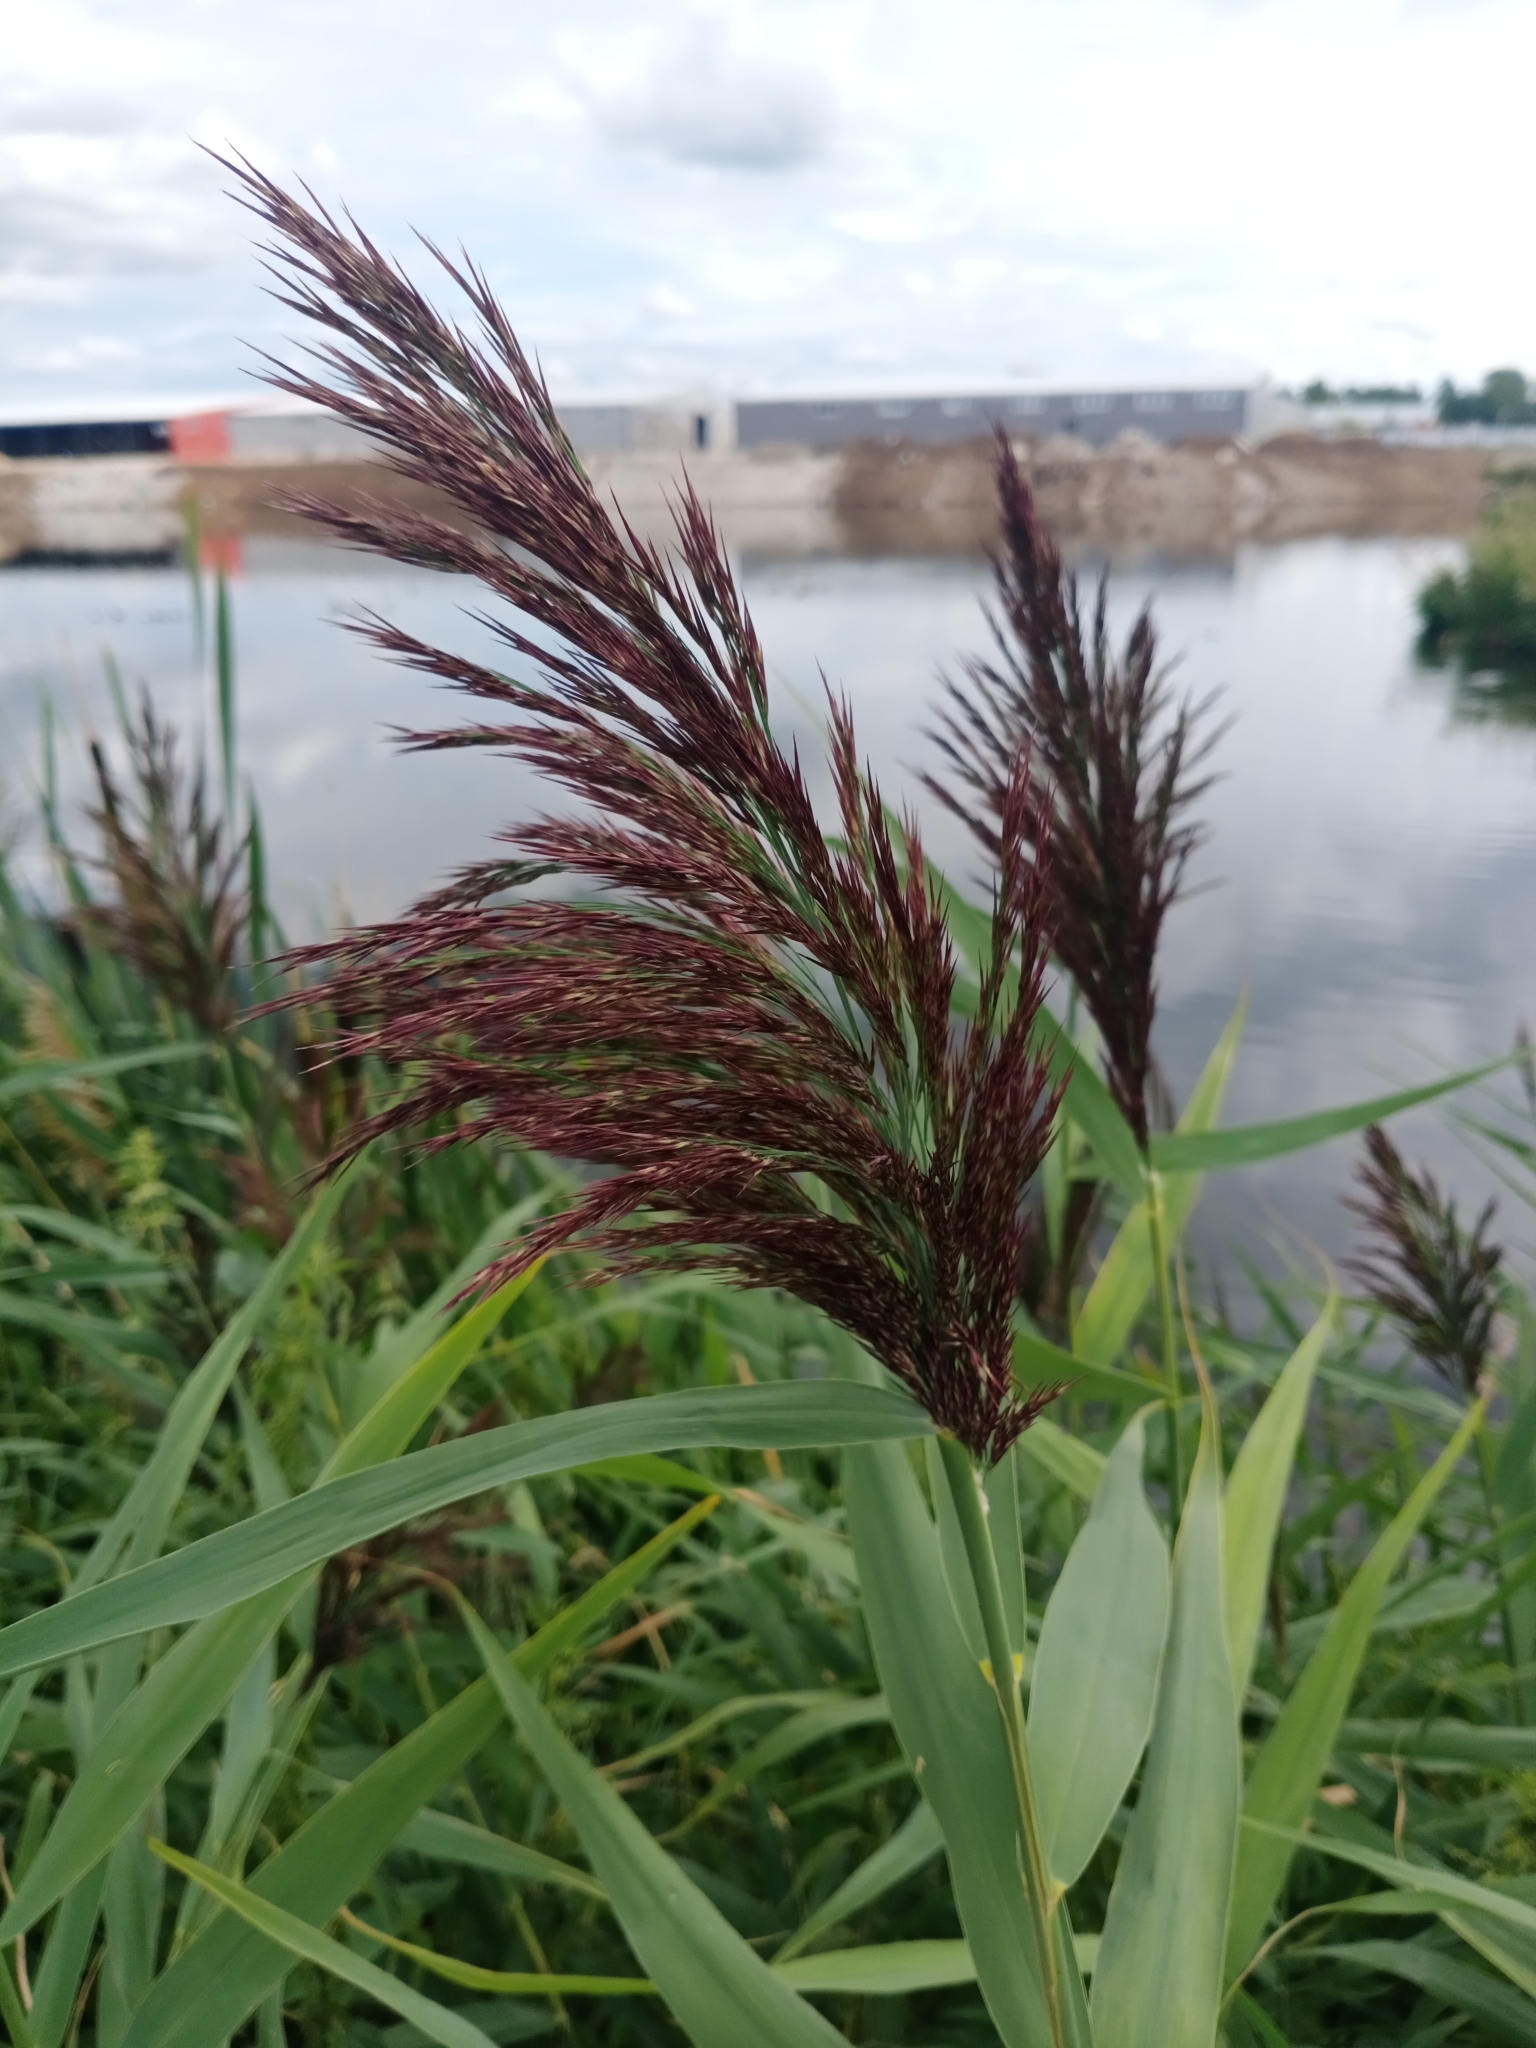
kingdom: Plantae
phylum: Tracheophyta
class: Liliopsida
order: Poales
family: Poaceae
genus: Phragmites
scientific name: Phragmites australis
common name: Common reed
